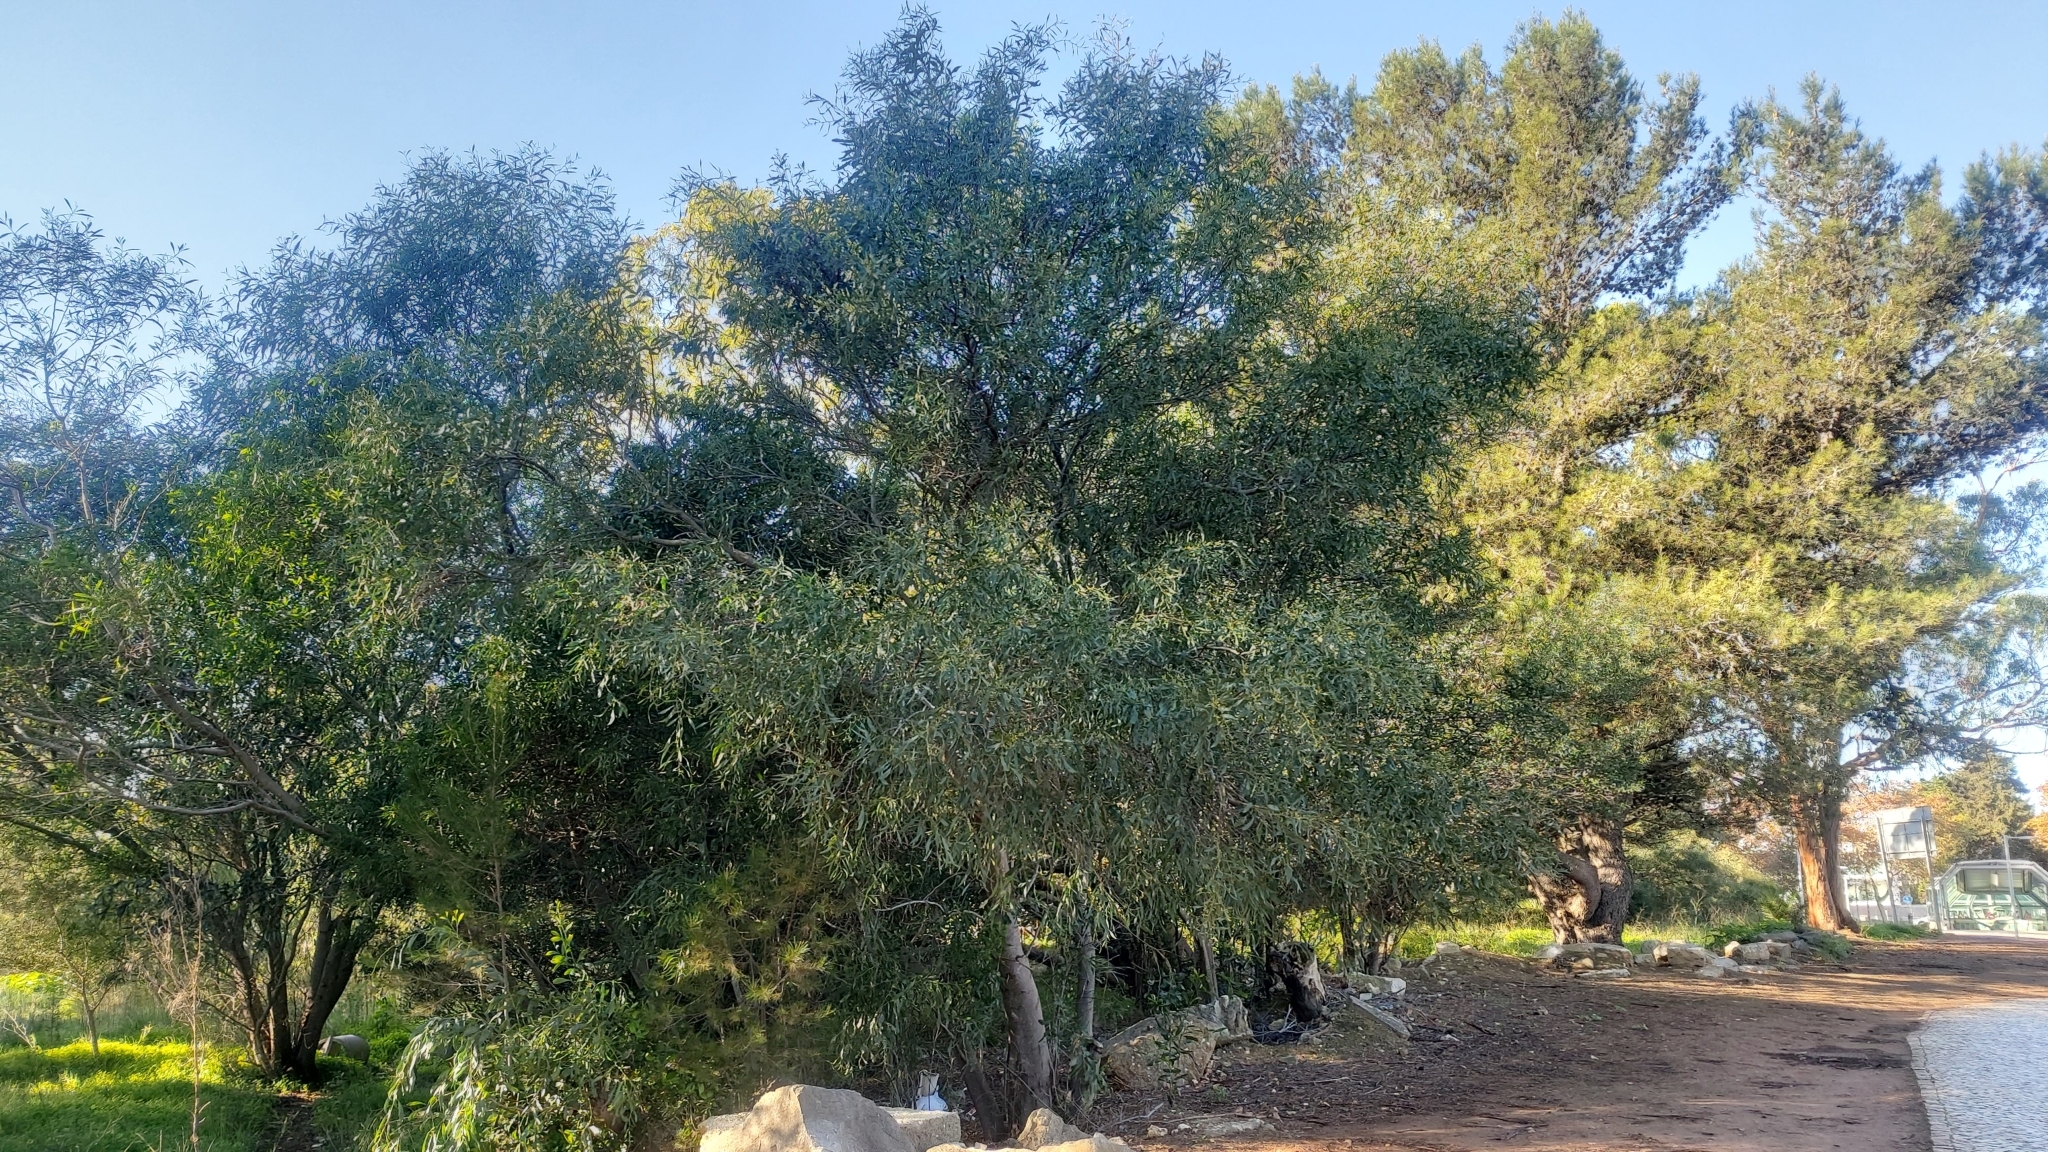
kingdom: Plantae
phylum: Tracheophyta
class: Magnoliopsida
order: Fabales
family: Fabaceae
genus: Acacia
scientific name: Acacia saligna
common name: Orange wattle
